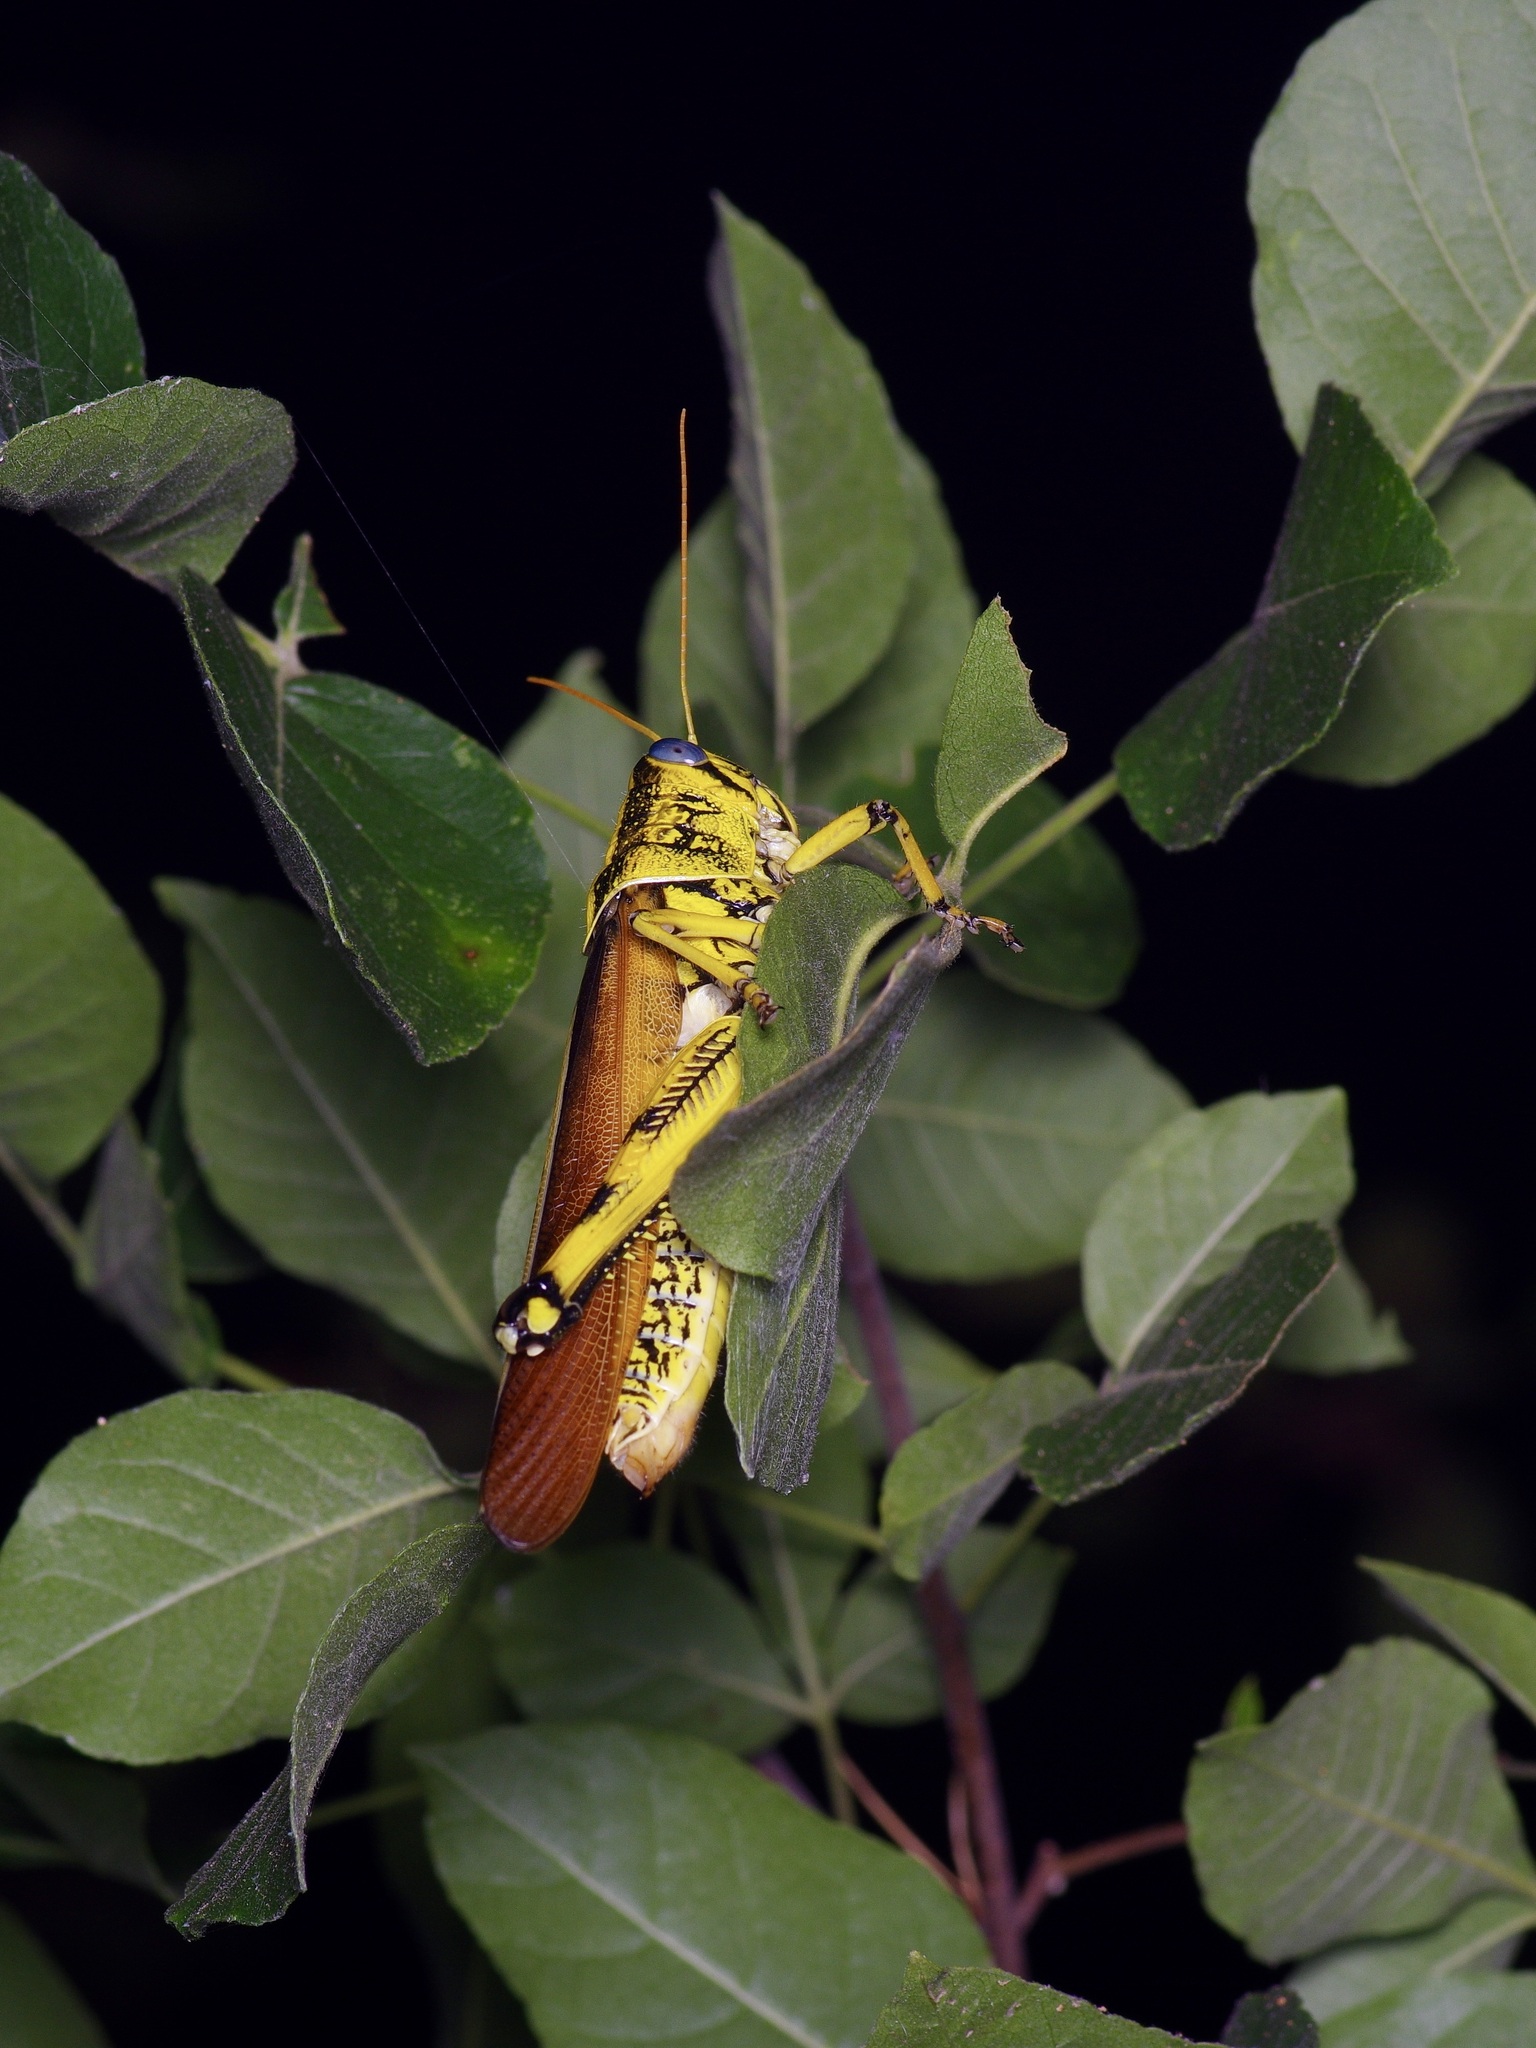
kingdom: Animalia
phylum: Arthropoda
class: Insecta
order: Orthoptera
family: Acrididae
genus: Schistocerca
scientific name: Schistocerca lineata
